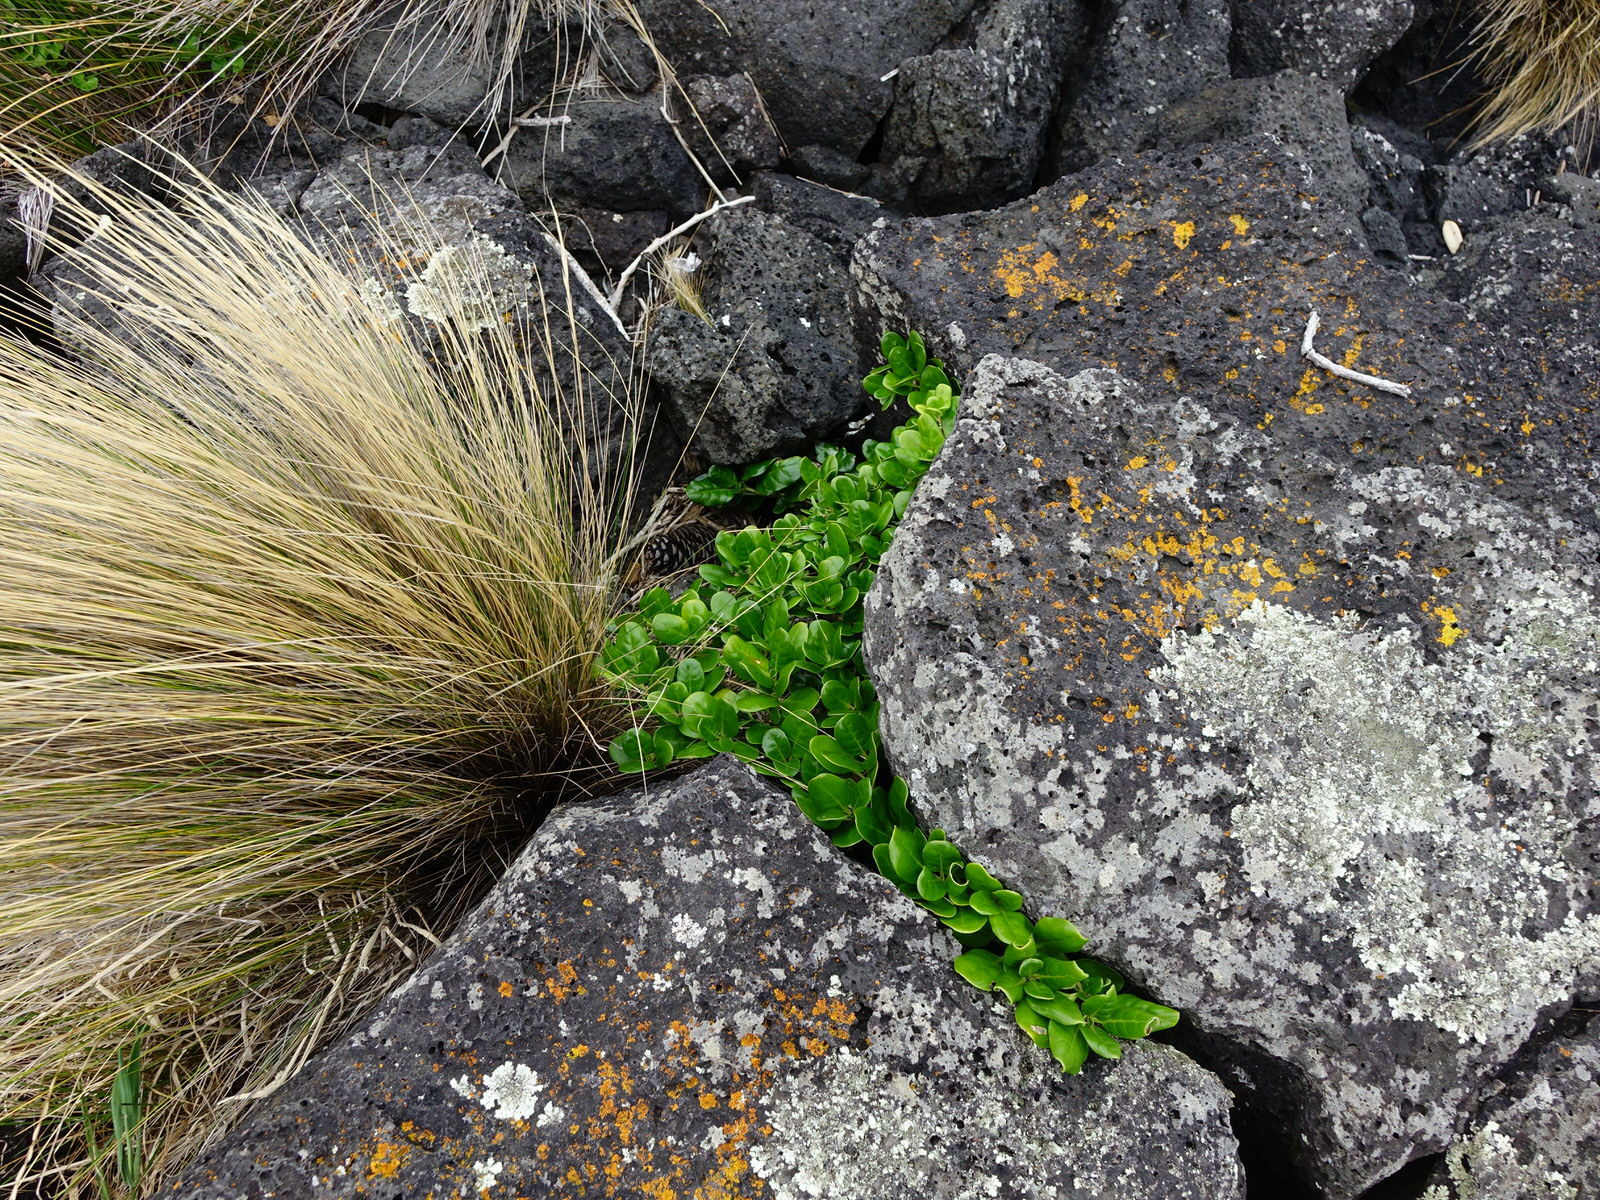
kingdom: Plantae
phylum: Tracheophyta
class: Magnoliopsida
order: Gentianales
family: Rubiaceae
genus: Coprosma
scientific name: Coprosma repens
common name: Tree bedstraw
